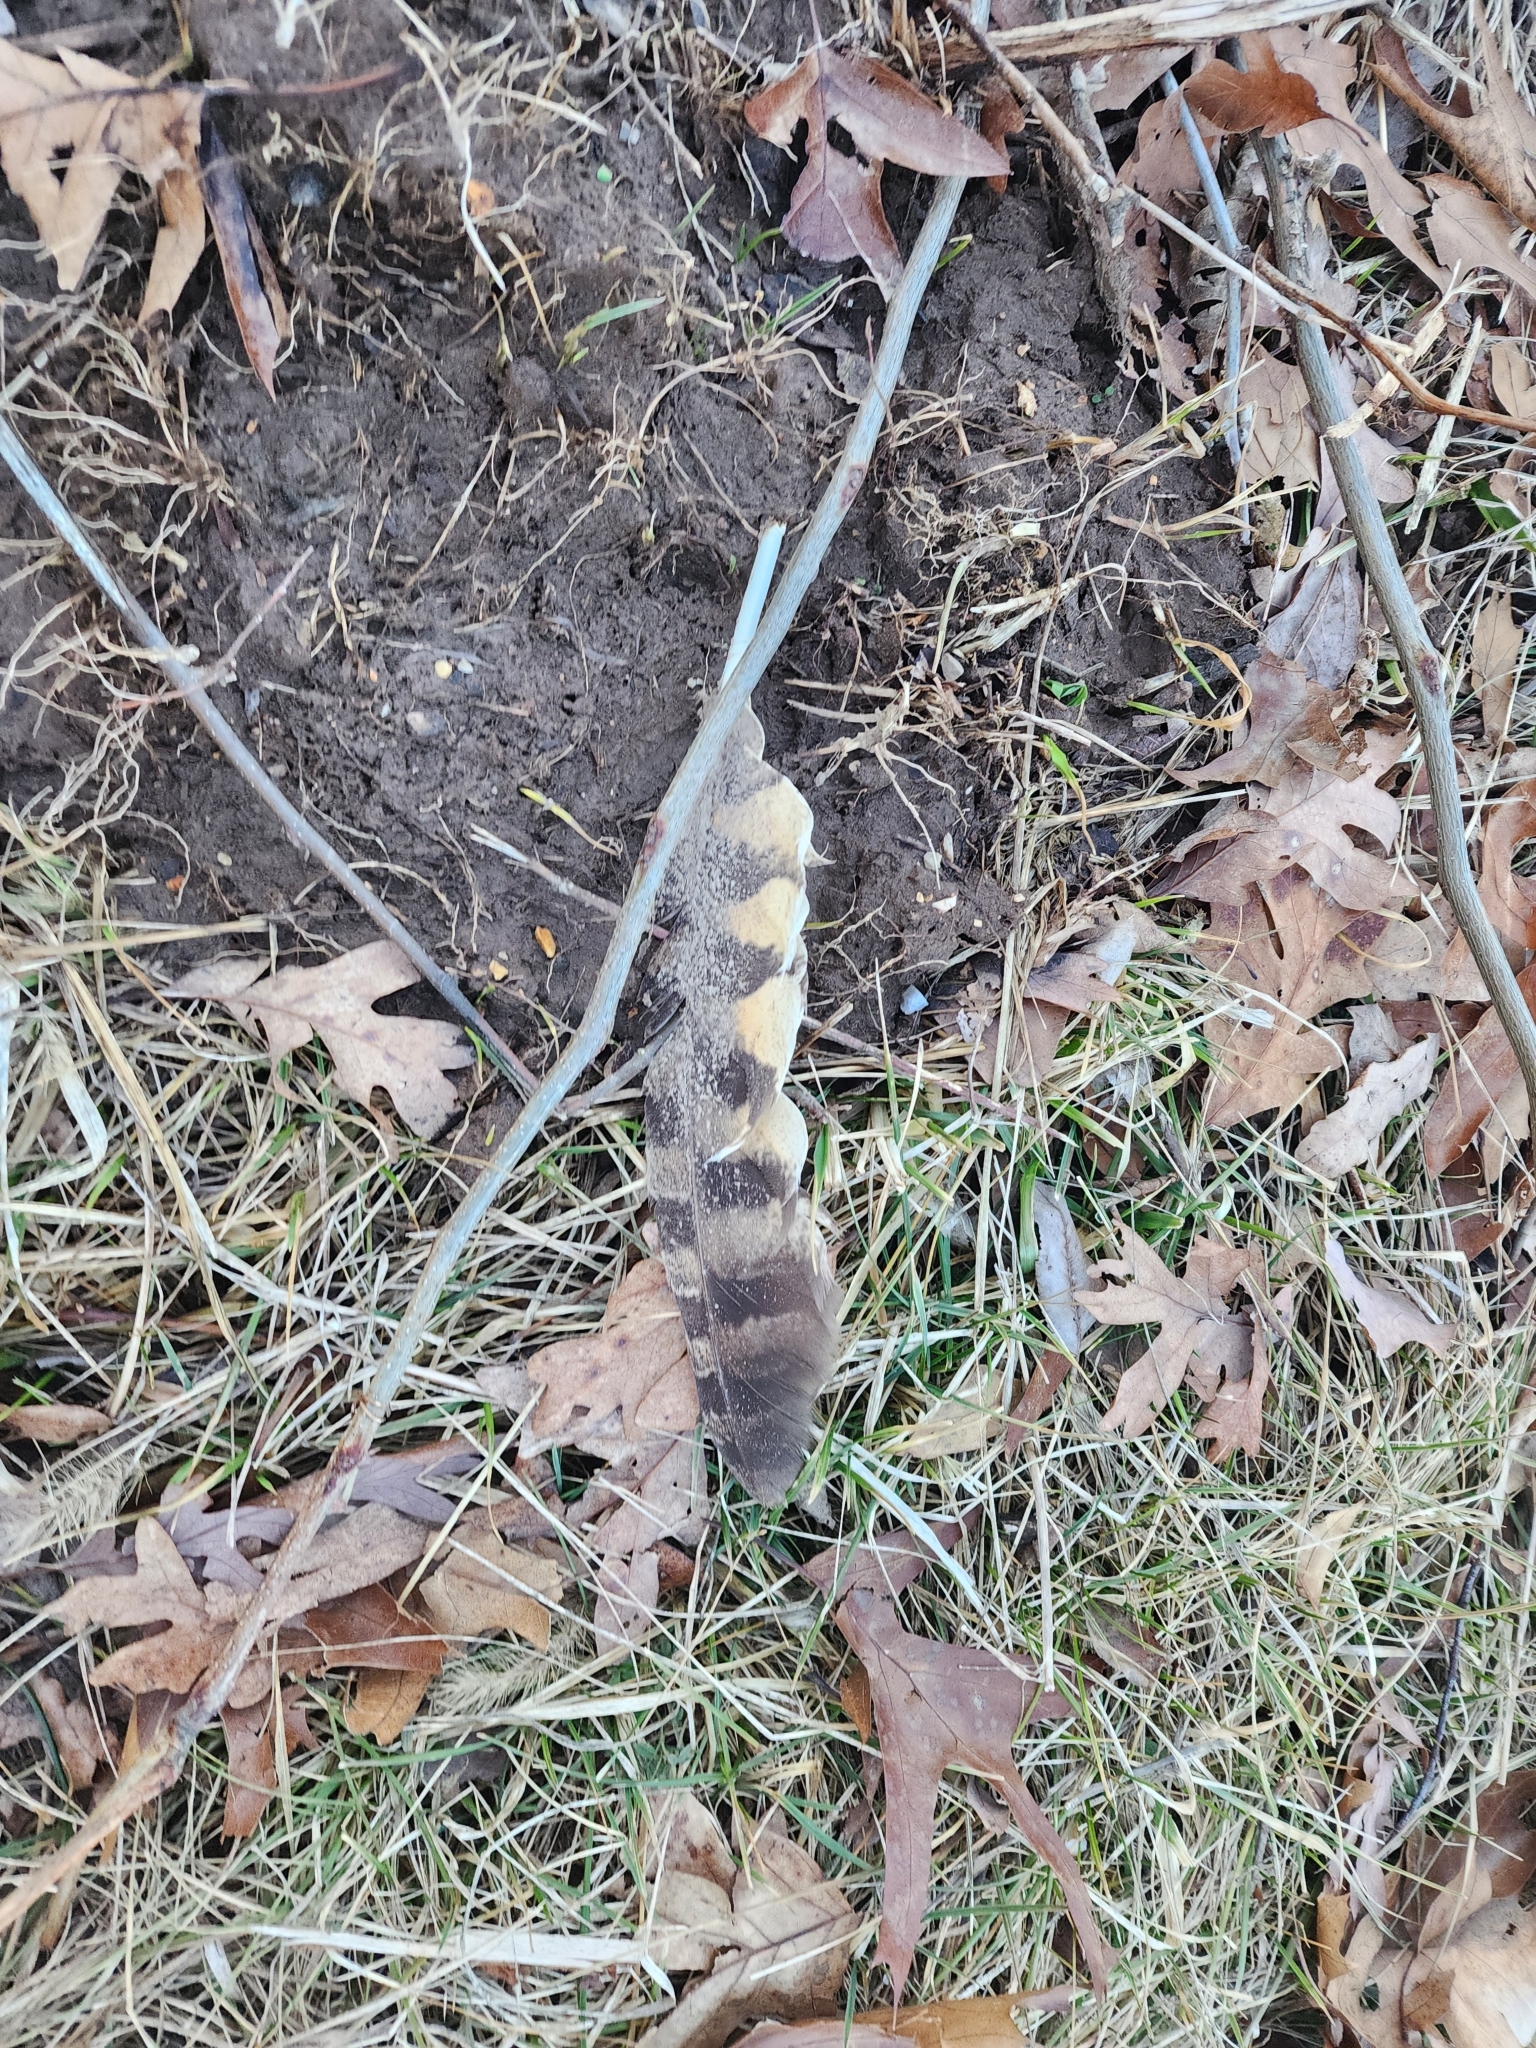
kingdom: Animalia
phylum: Chordata
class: Aves
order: Strigiformes
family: Strigidae
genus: Bubo
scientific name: Bubo virginianus
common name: Great horned owl
